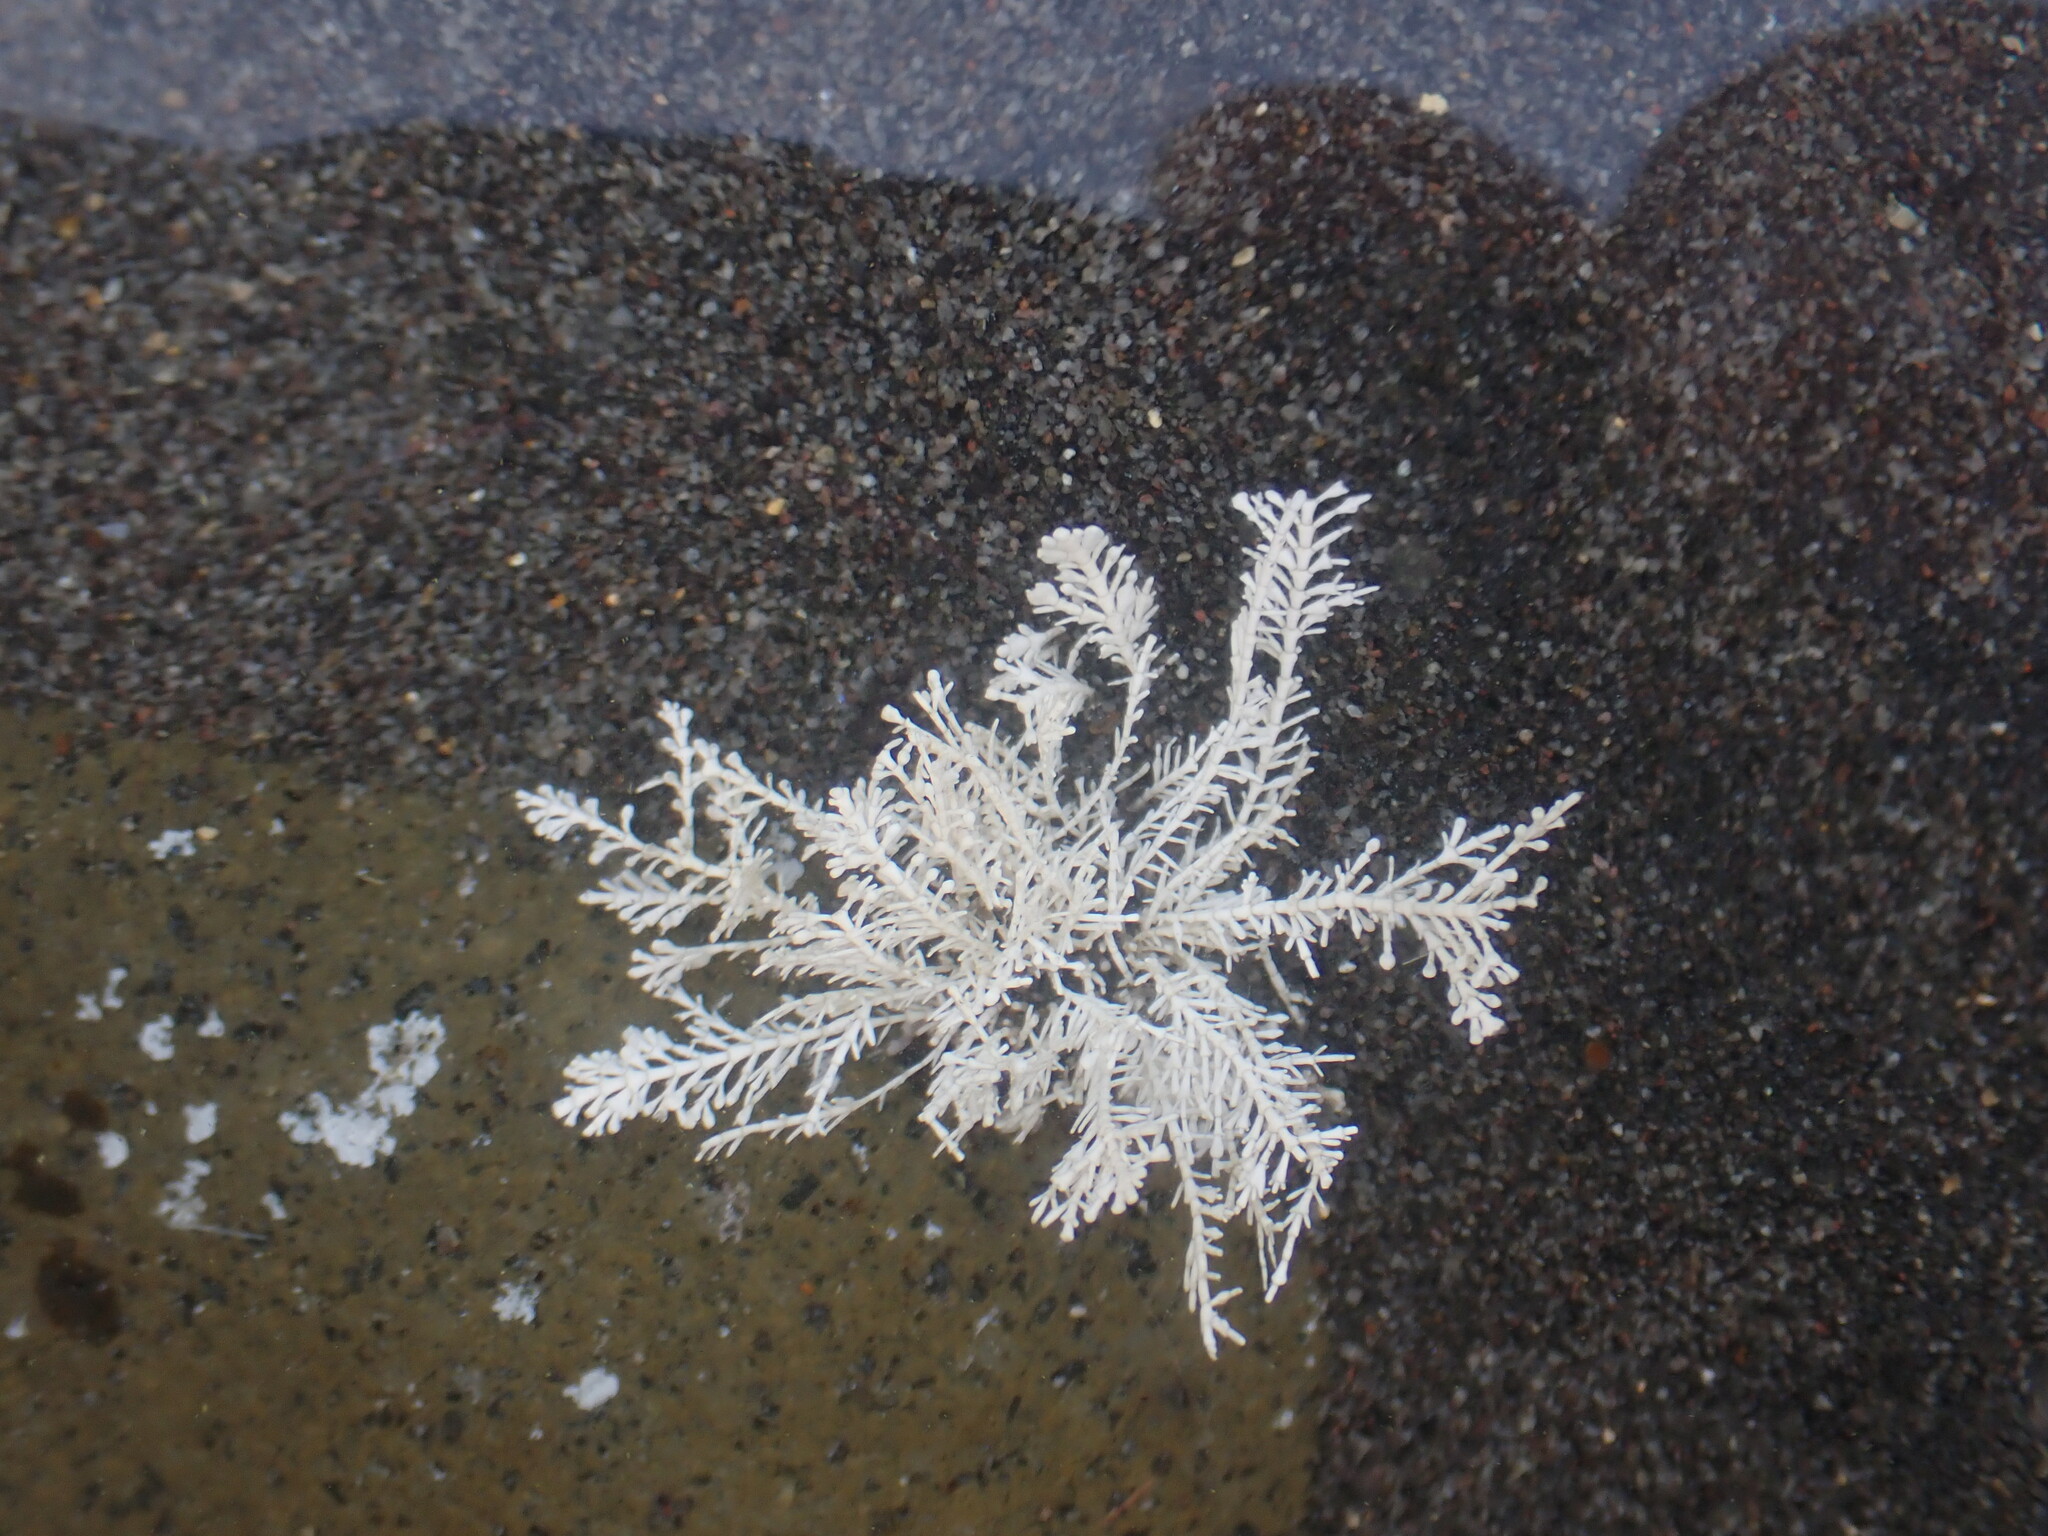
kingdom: Plantae
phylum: Rhodophyta
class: Florideophyceae
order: Corallinales
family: Corallinaceae
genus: Corallina
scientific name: Corallina officinalis
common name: Coral weed
